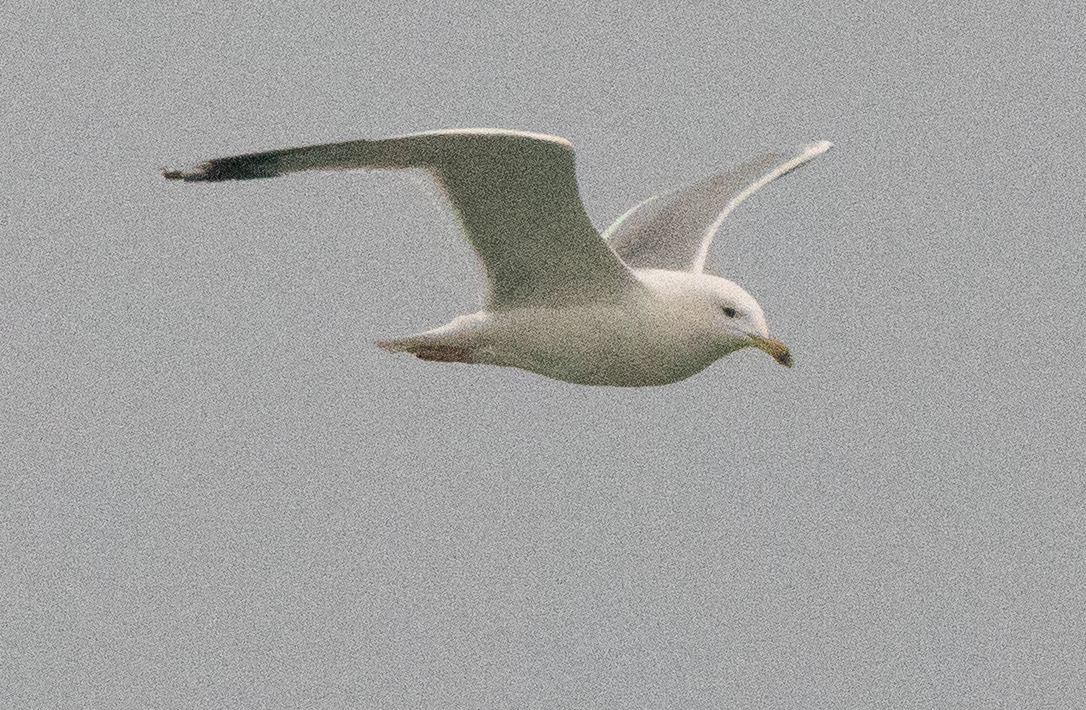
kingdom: Animalia
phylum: Chordata
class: Aves
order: Charadriiformes
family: Laridae
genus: Larus
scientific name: Larus michahellis
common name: Yellow-legged gull
